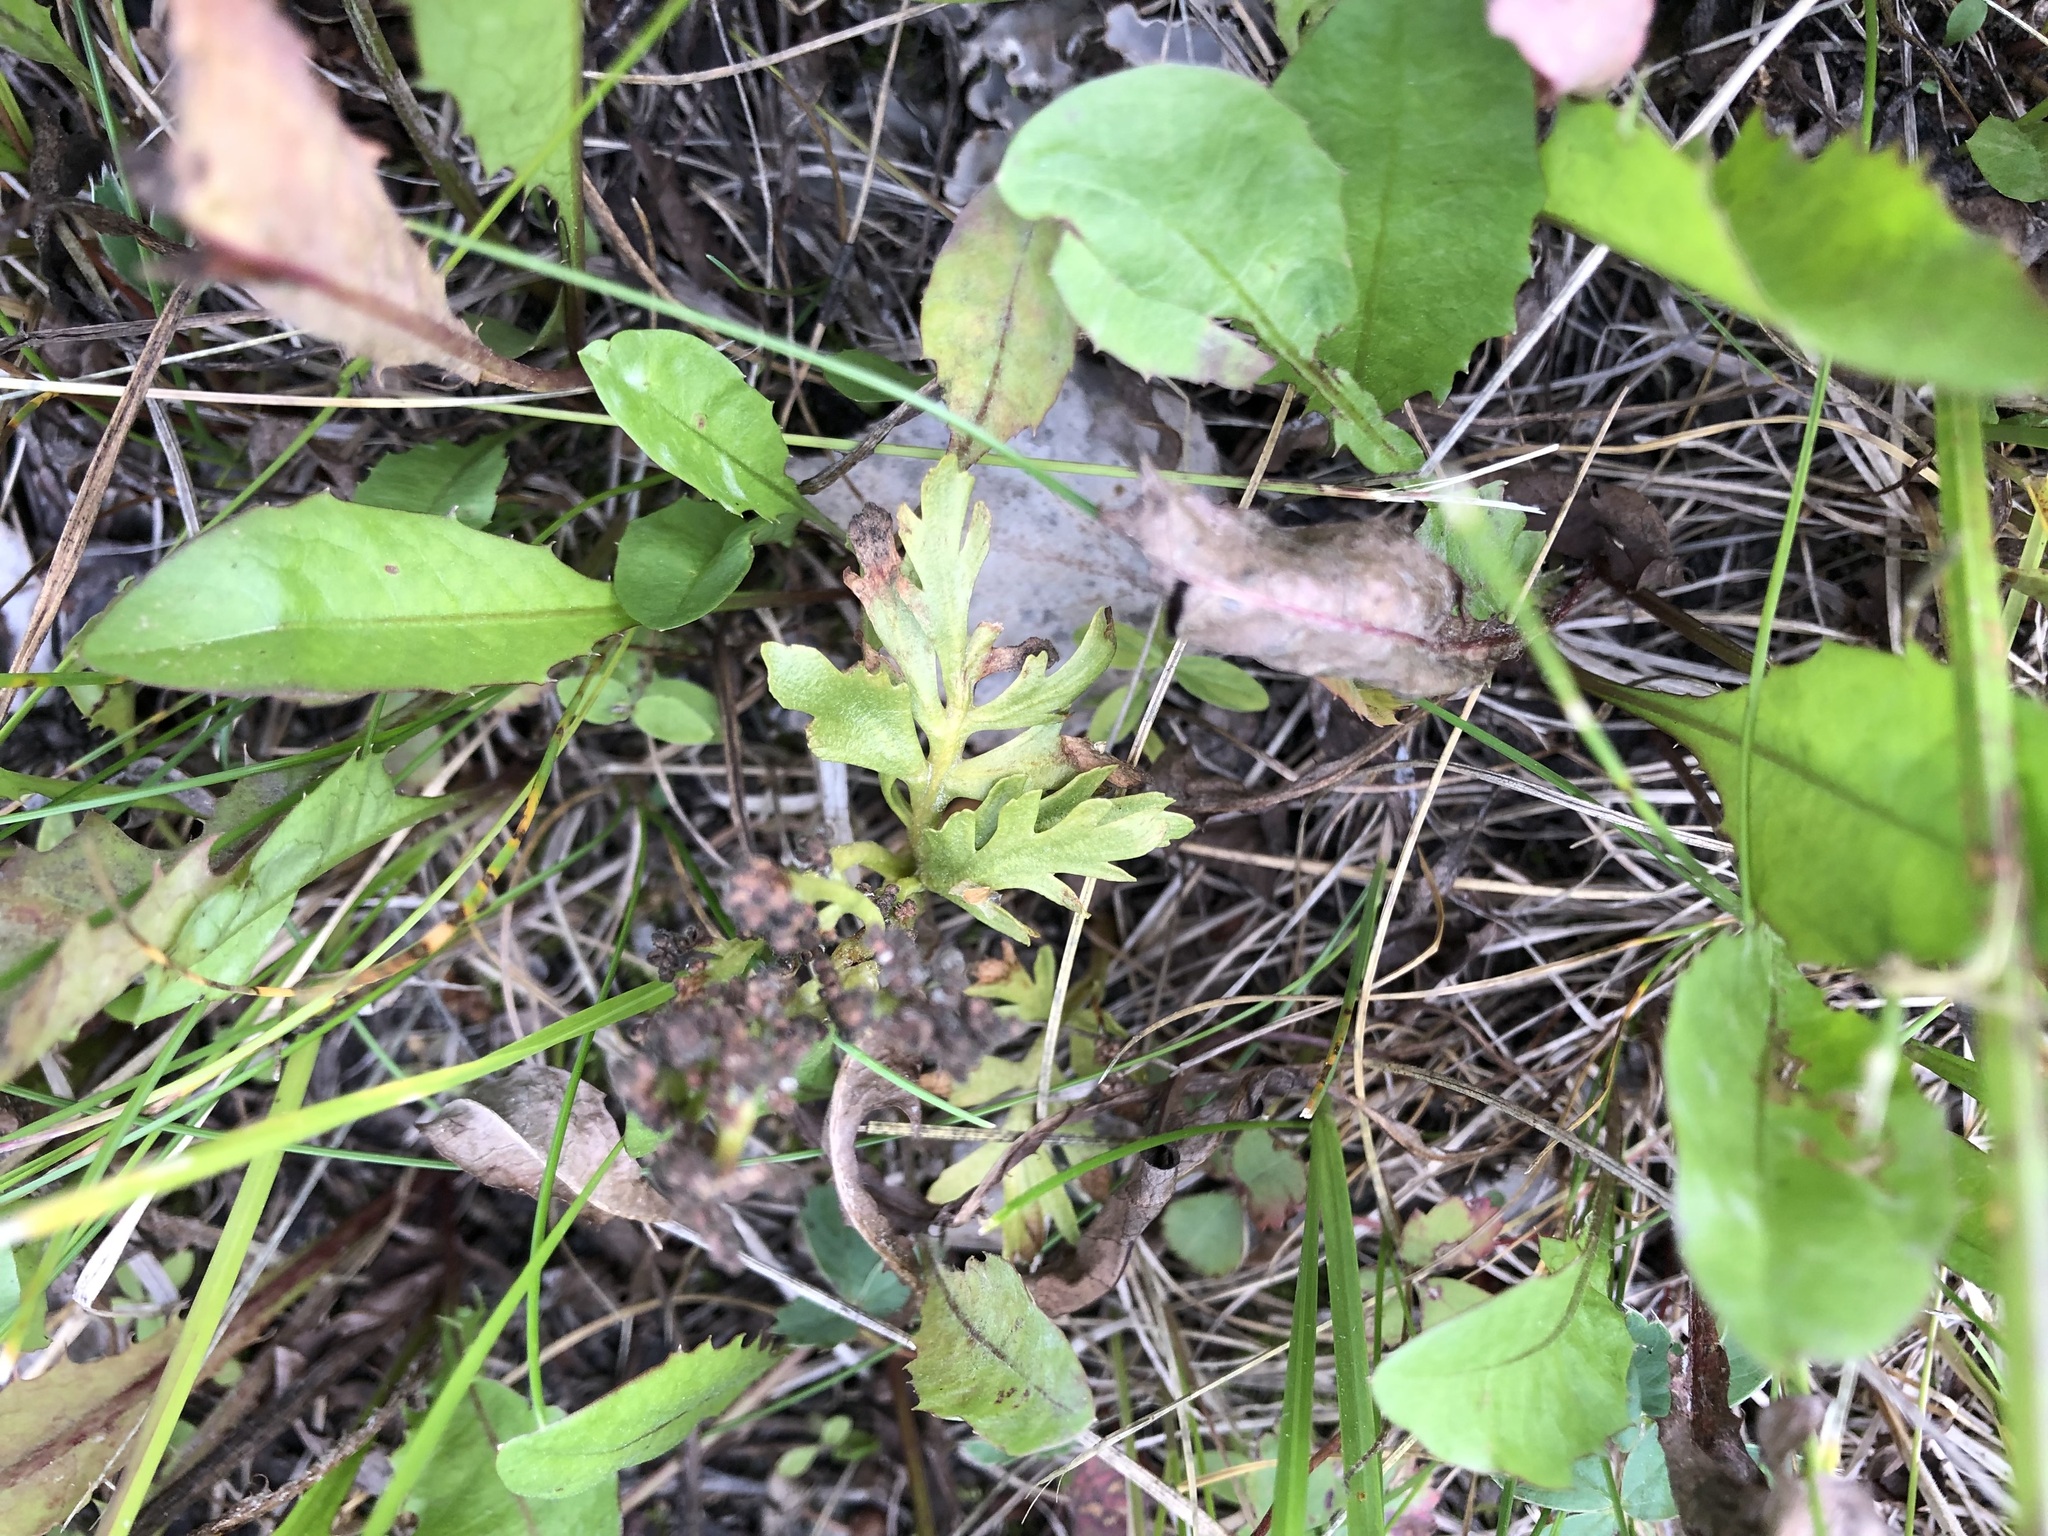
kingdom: Plantae
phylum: Tracheophyta
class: Polypodiopsida
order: Ophioglossales
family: Ophioglossaceae
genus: Botrychium
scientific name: Botrychium alaskense
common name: Alaska moonwort
